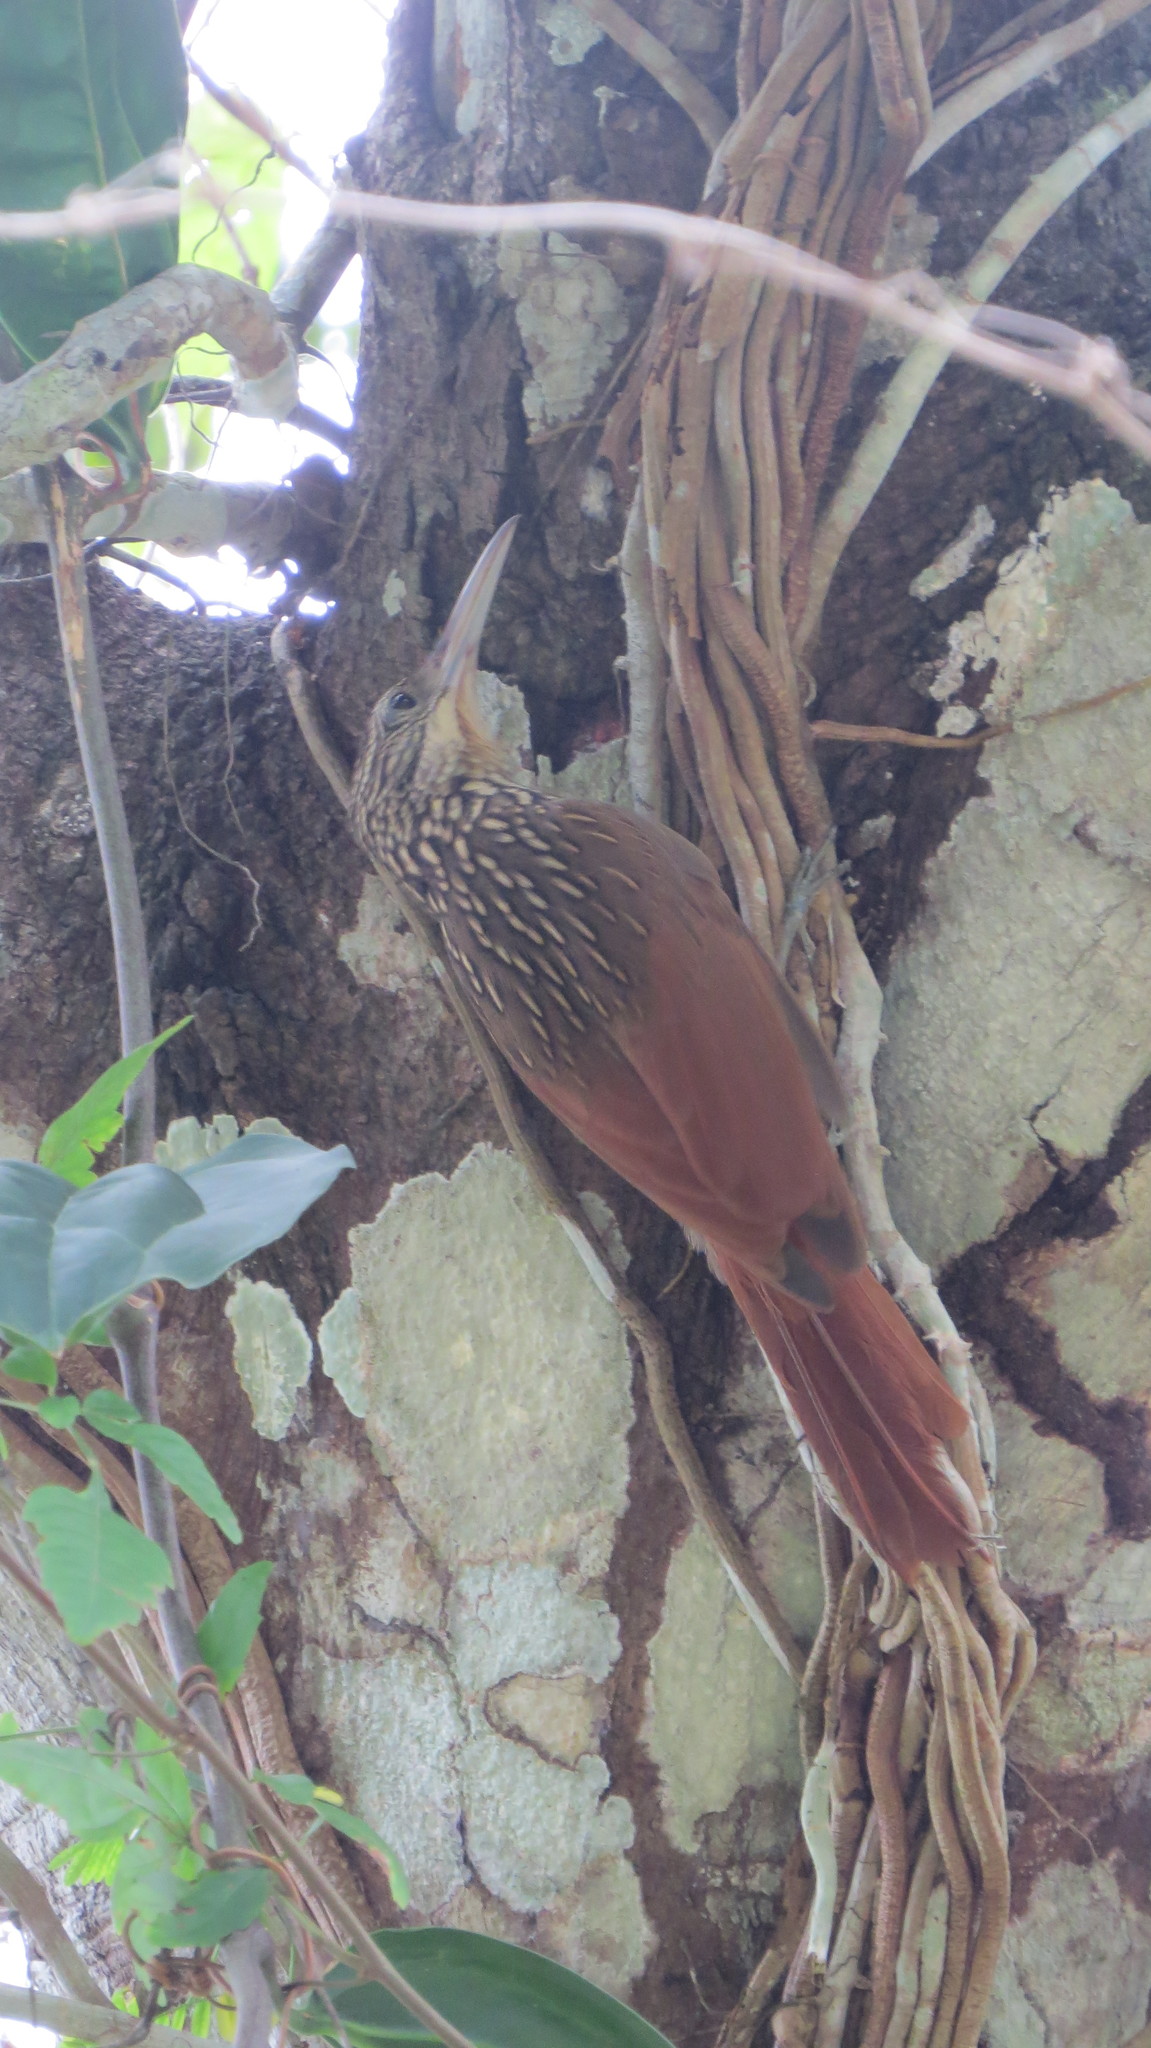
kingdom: Animalia
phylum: Chordata
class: Aves
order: Passeriformes
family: Furnariidae
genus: Xiphorhynchus
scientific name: Xiphorhynchus flavigaster
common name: Ivory-billed woodcreeper
